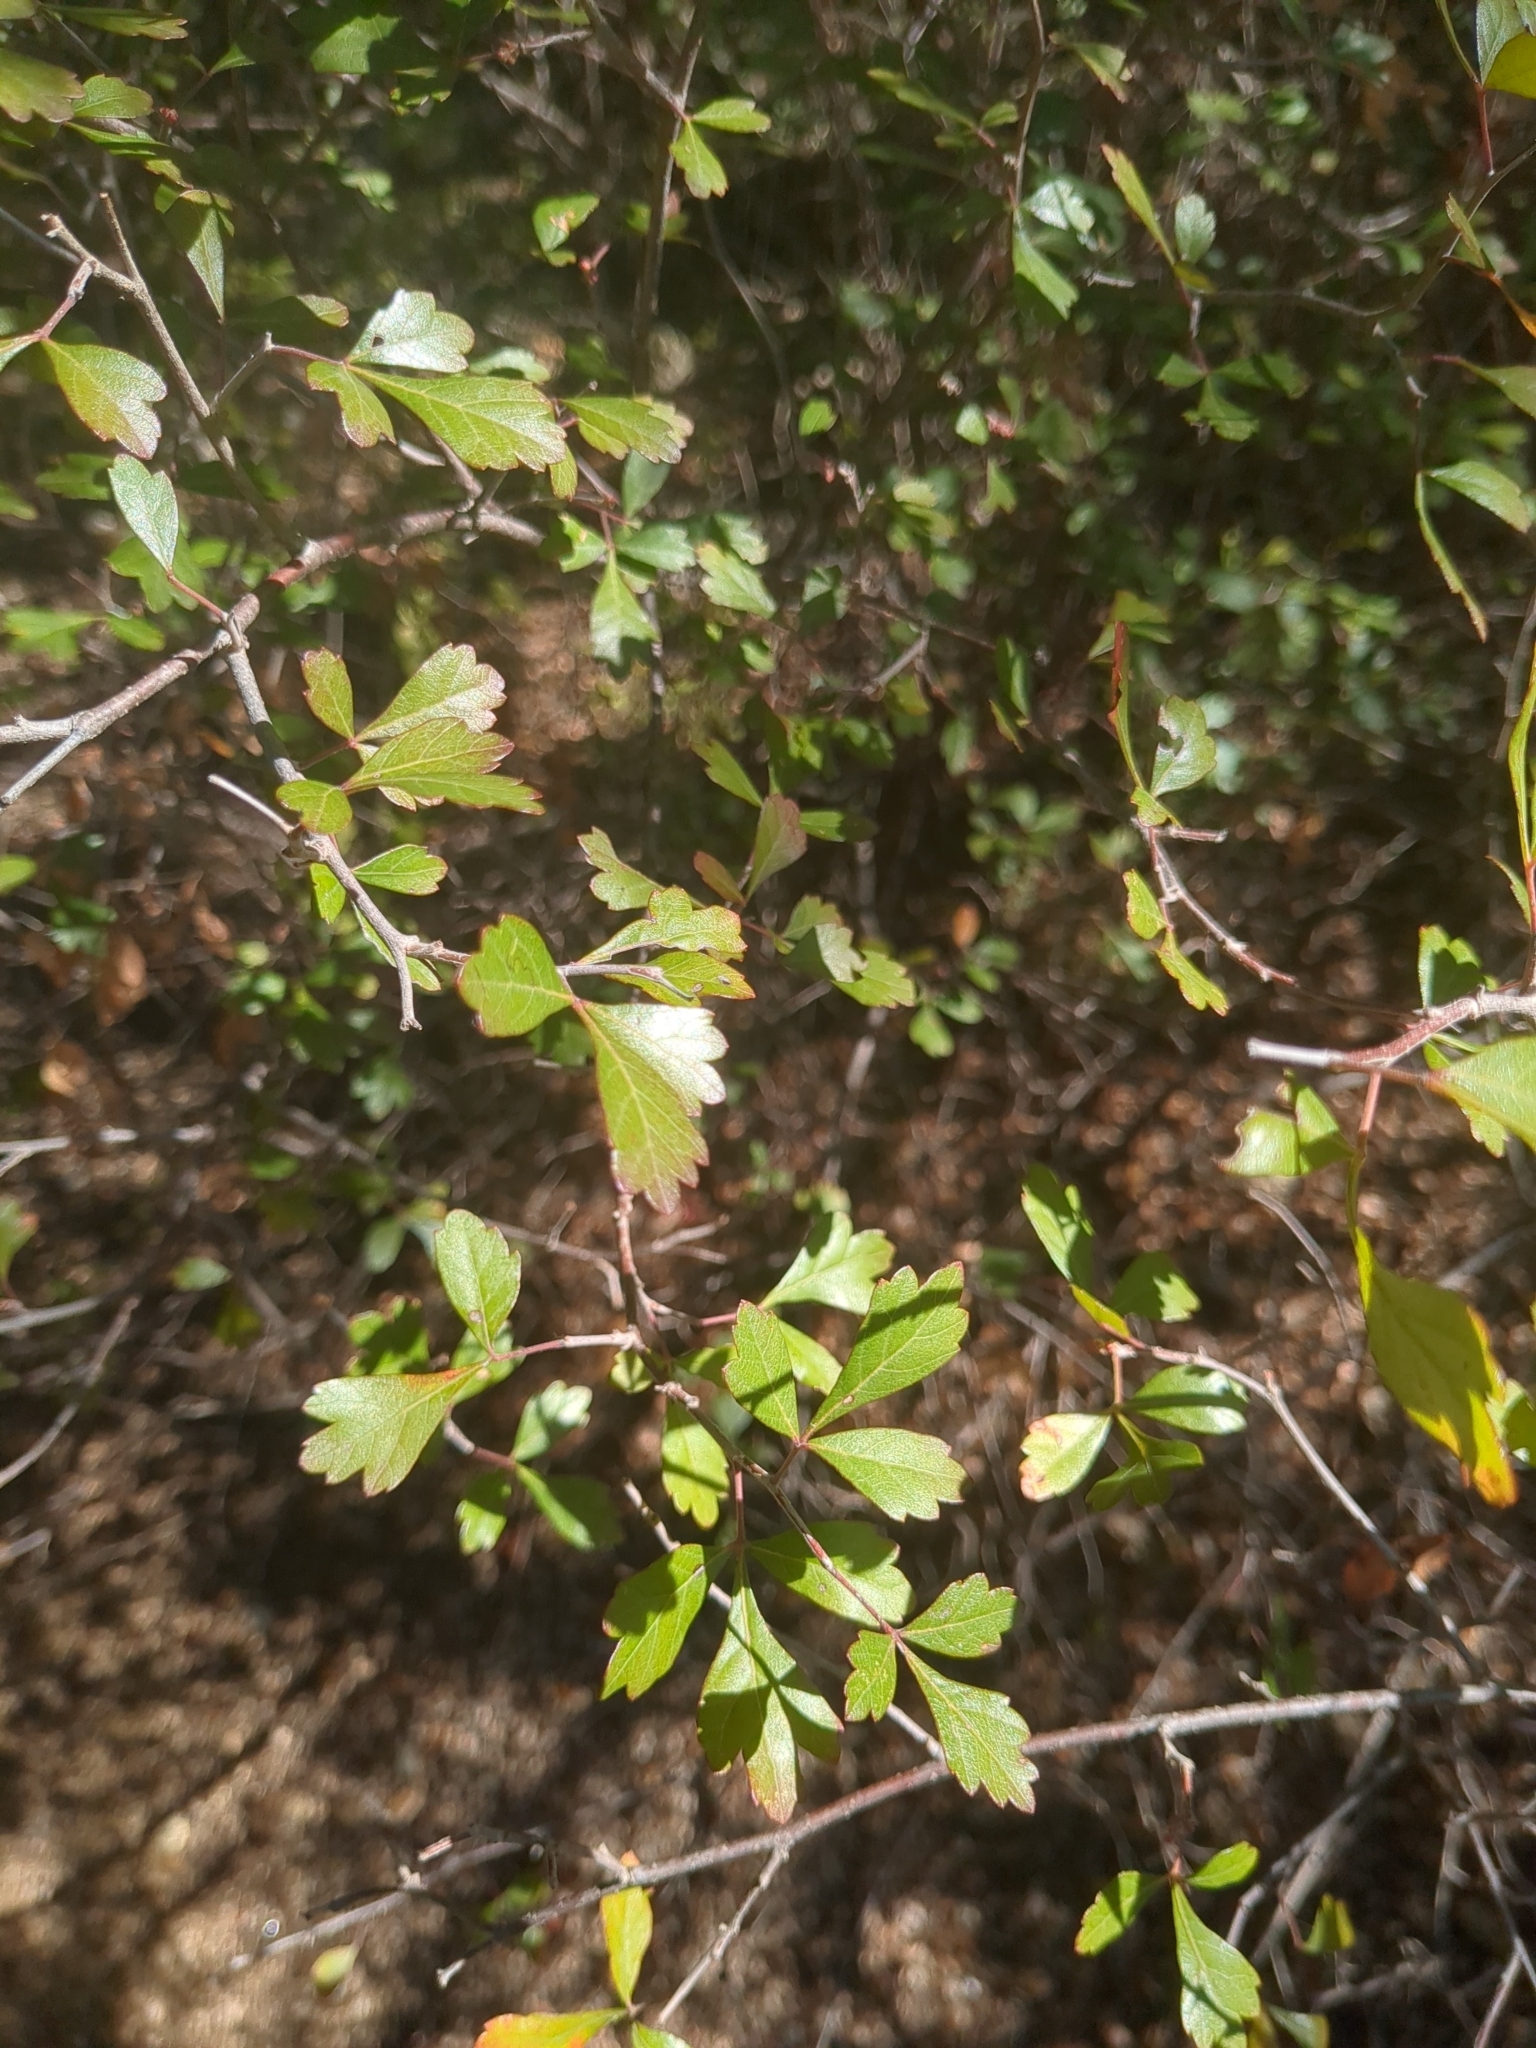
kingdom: Plantae
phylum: Tracheophyta
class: Magnoliopsida
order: Sapindales
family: Anacardiaceae
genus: Rhus
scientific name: Rhus trilobata
